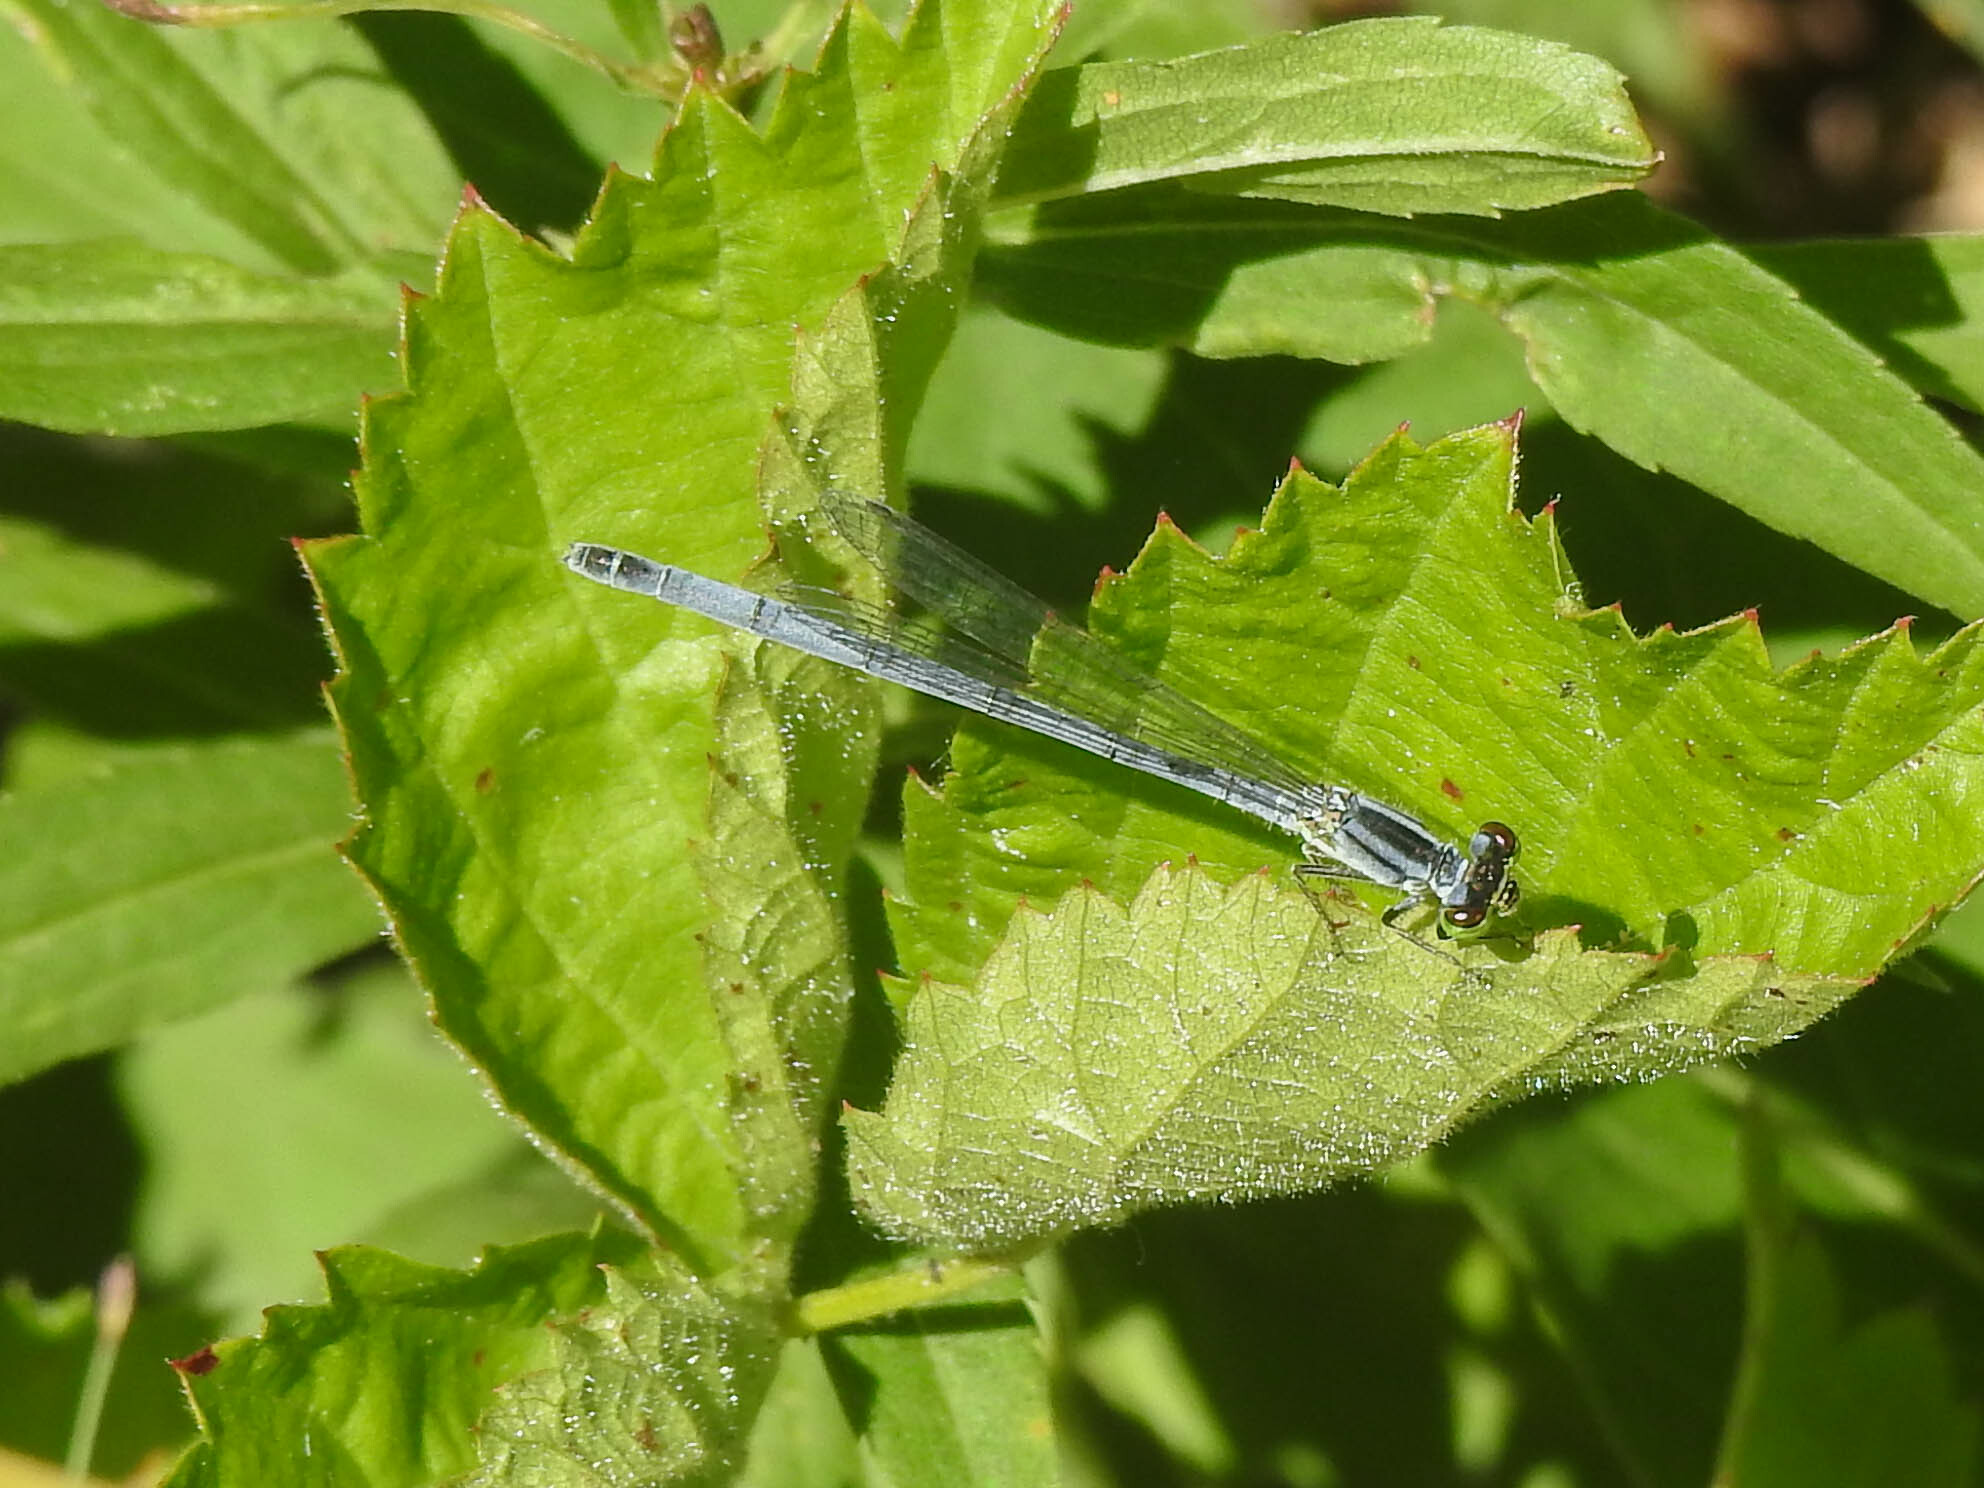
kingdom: Animalia
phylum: Arthropoda
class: Insecta
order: Odonata
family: Coenagrionidae
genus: Ischnura
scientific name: Ischnura verticalis
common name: Eastern forktail
